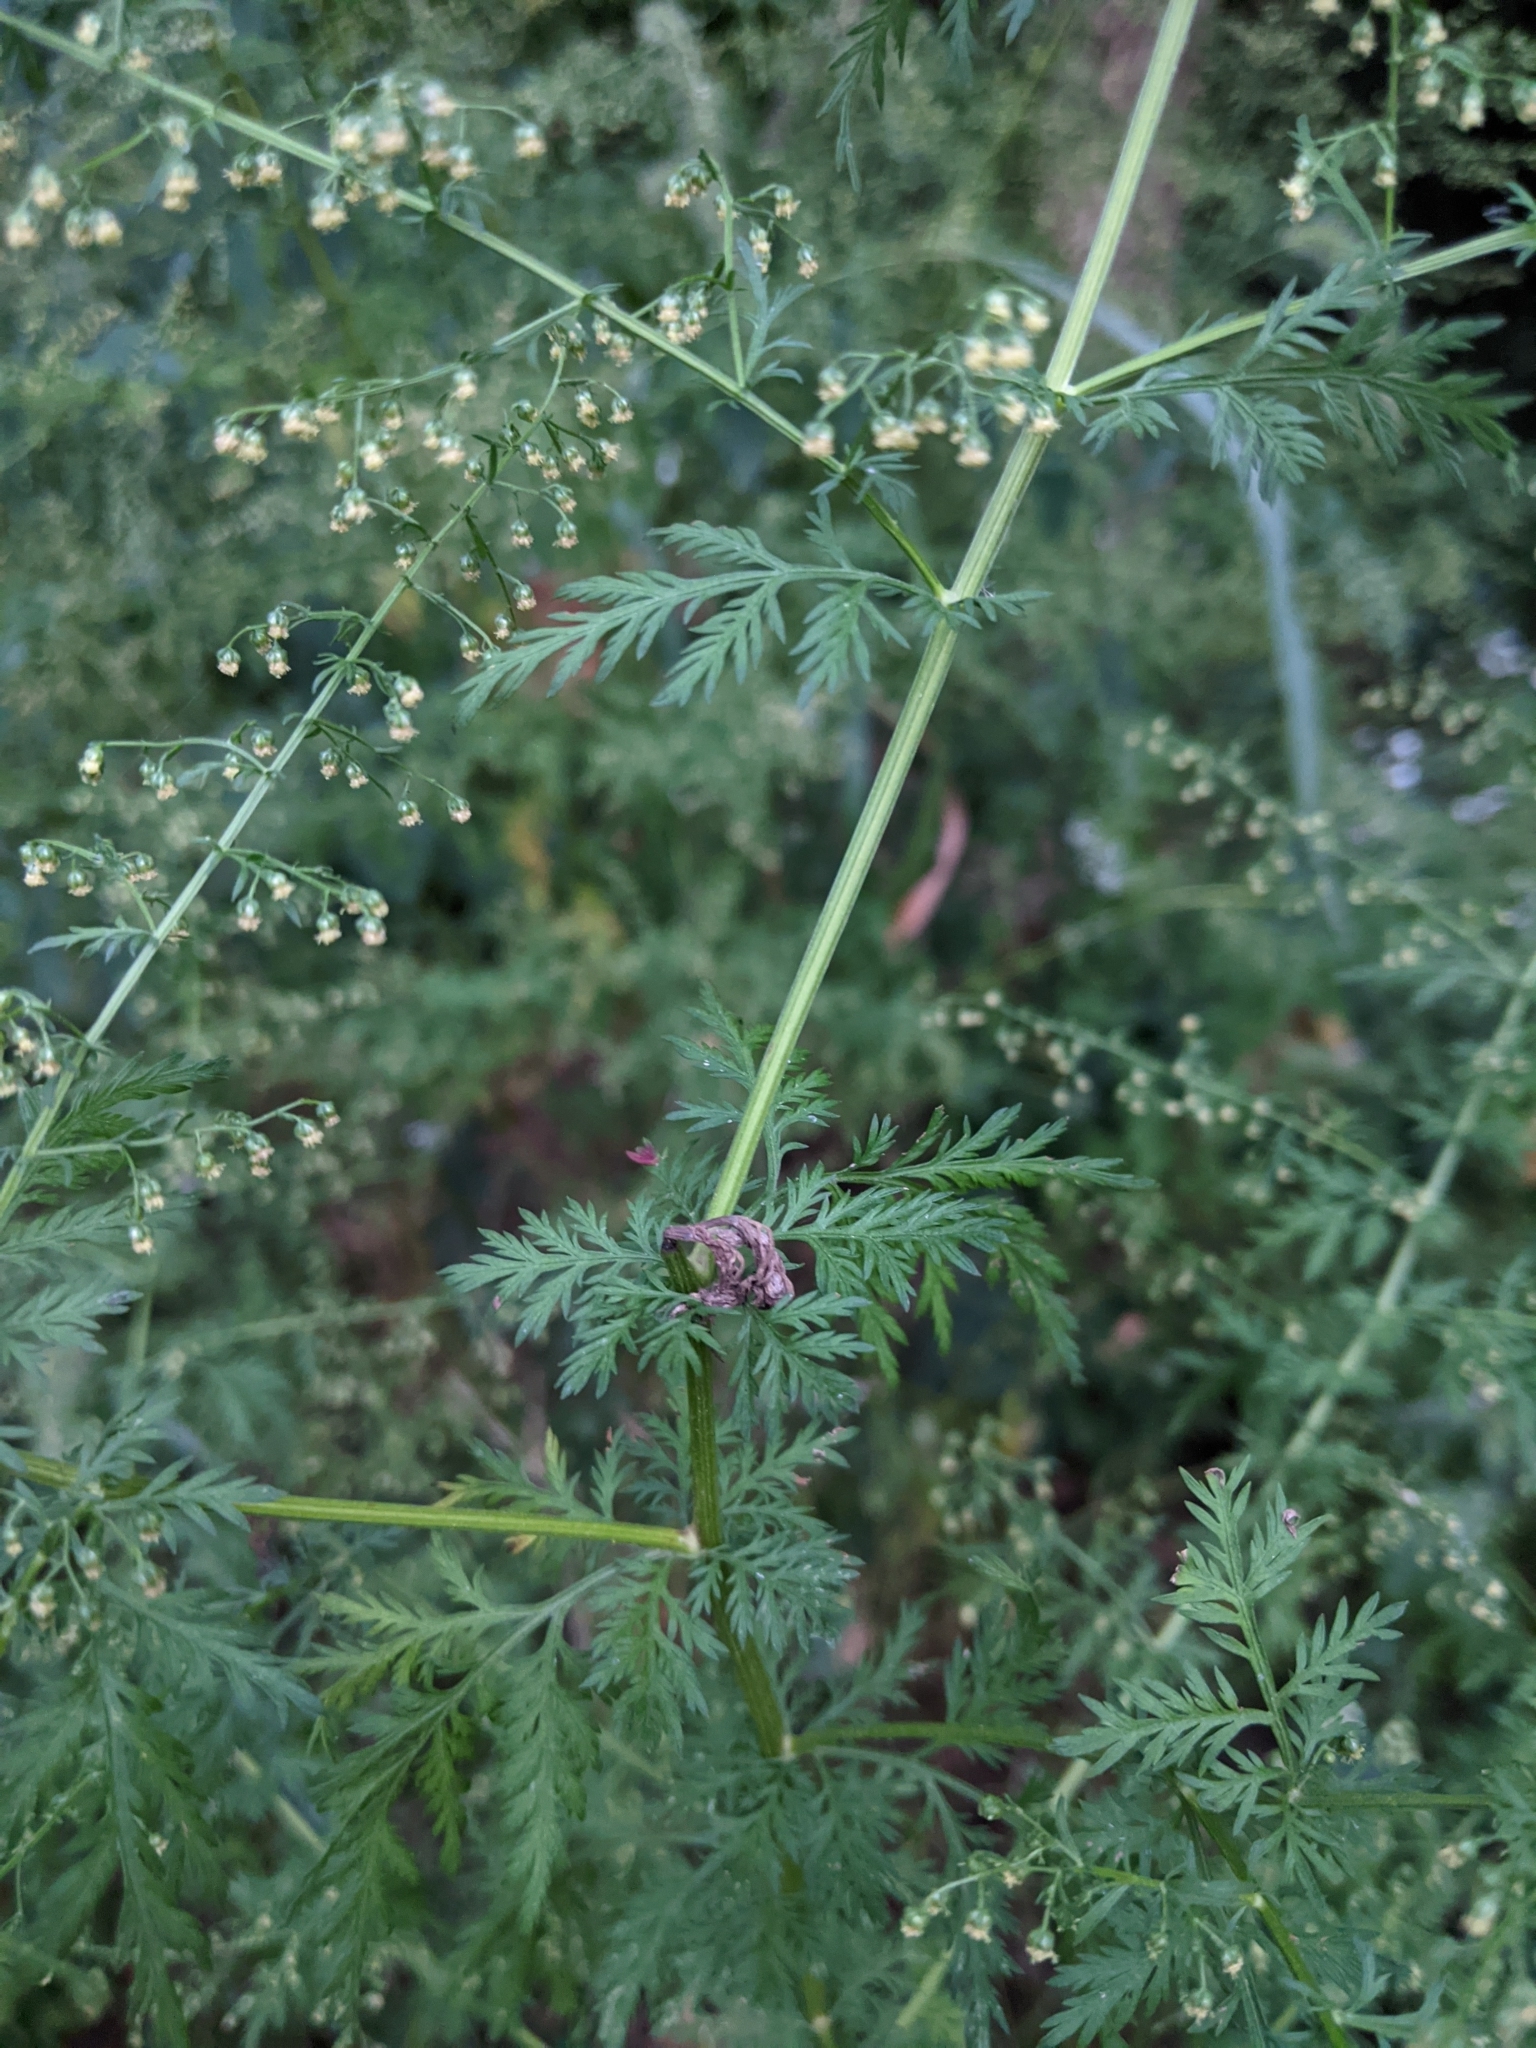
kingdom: Plantae
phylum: Tracheophyta
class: Magnoliopsida
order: Asterales
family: Asteraceae
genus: Artemisia
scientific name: Artemisia annua
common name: Sweet sagewort
